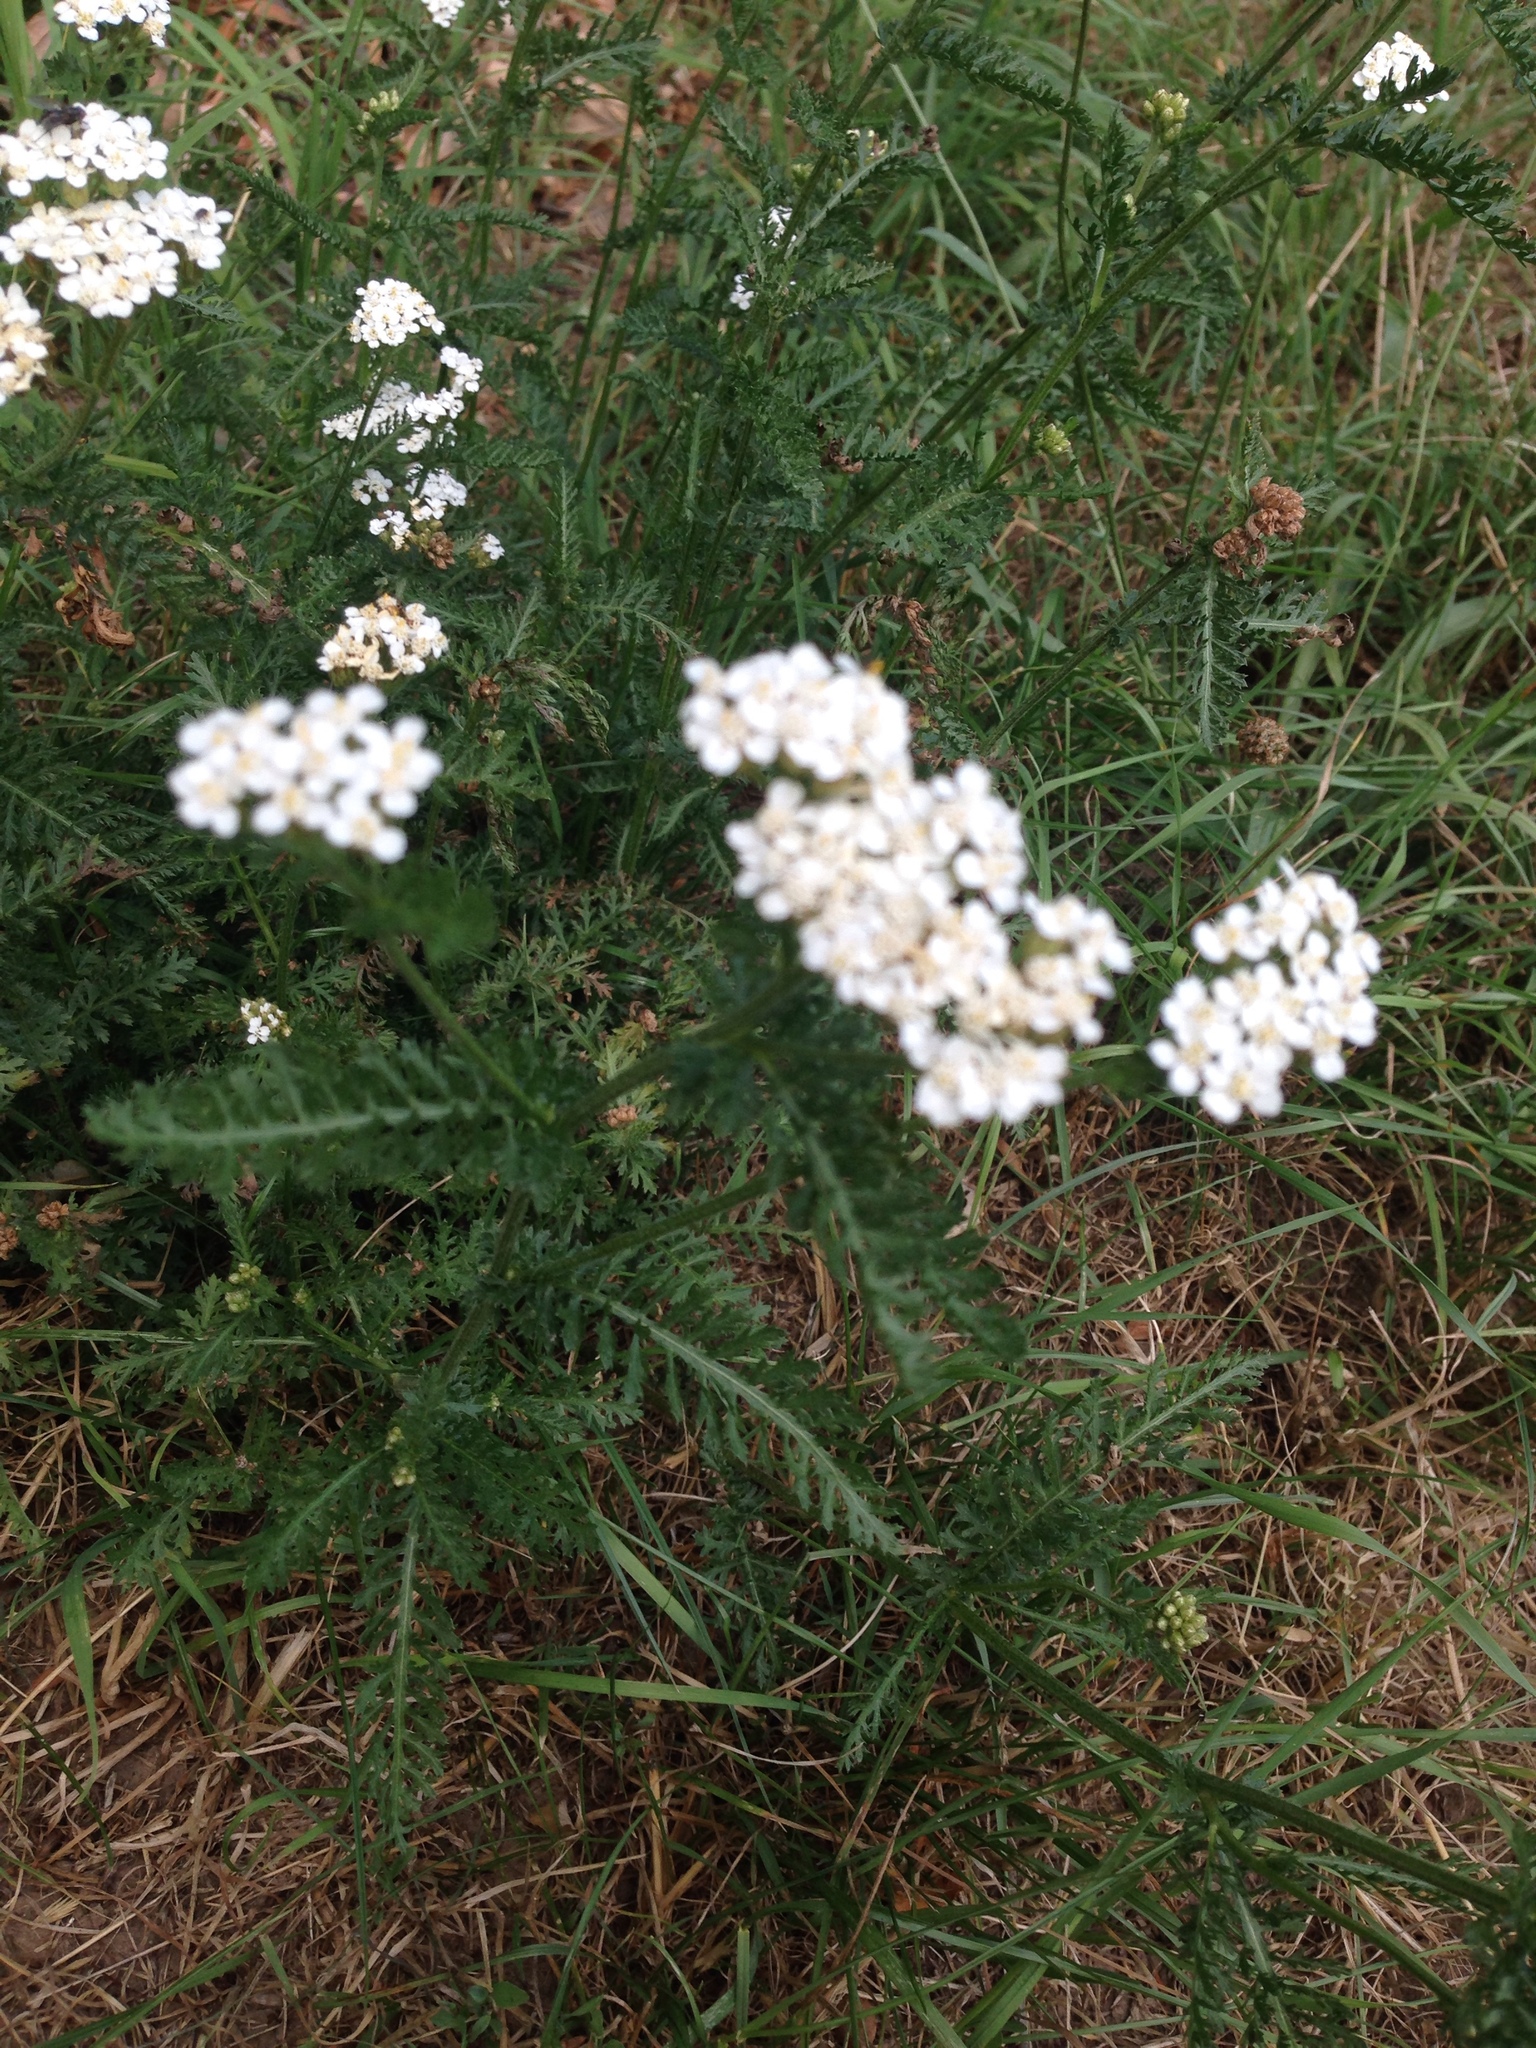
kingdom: Plantae
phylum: Tracheophyta
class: Magnoliopsida
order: Asterales
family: Asteraceae
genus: Achillea
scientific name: Achillea millefolium
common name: Yarrow
